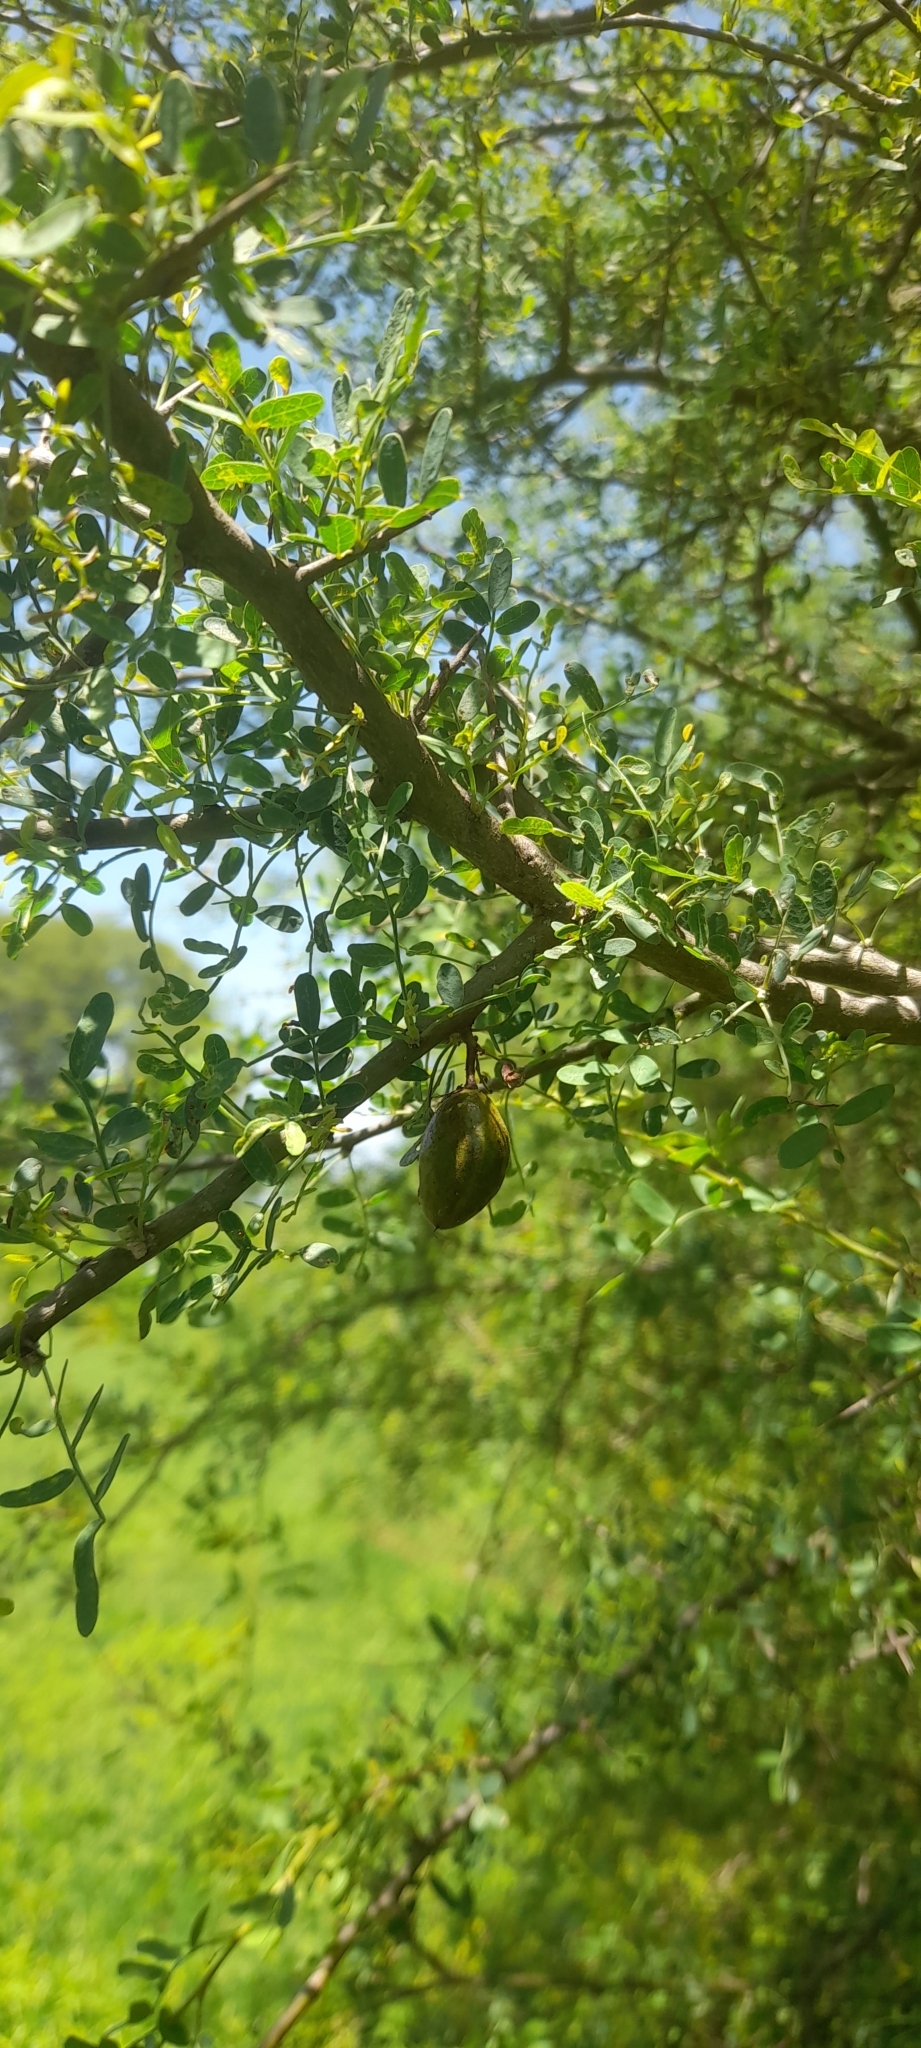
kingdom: Plantae
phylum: Tracheophyta
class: Magnoliopsida
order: Fabales
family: Fabaceae
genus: Geoffroea
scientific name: Geoffroea decorticans
